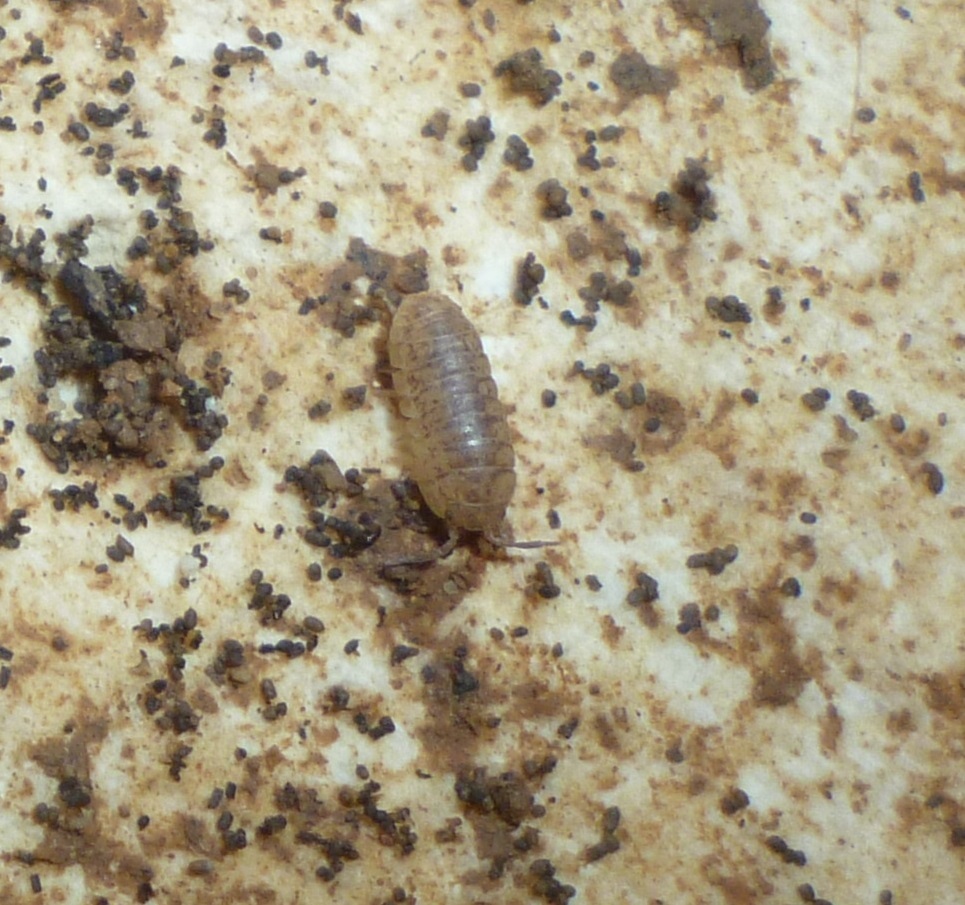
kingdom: Animalia
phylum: Arthropoda
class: Malacostraca
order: Isopoda
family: Armadillidiidae
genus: Armadillidium
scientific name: Armadillidium marmoratum
